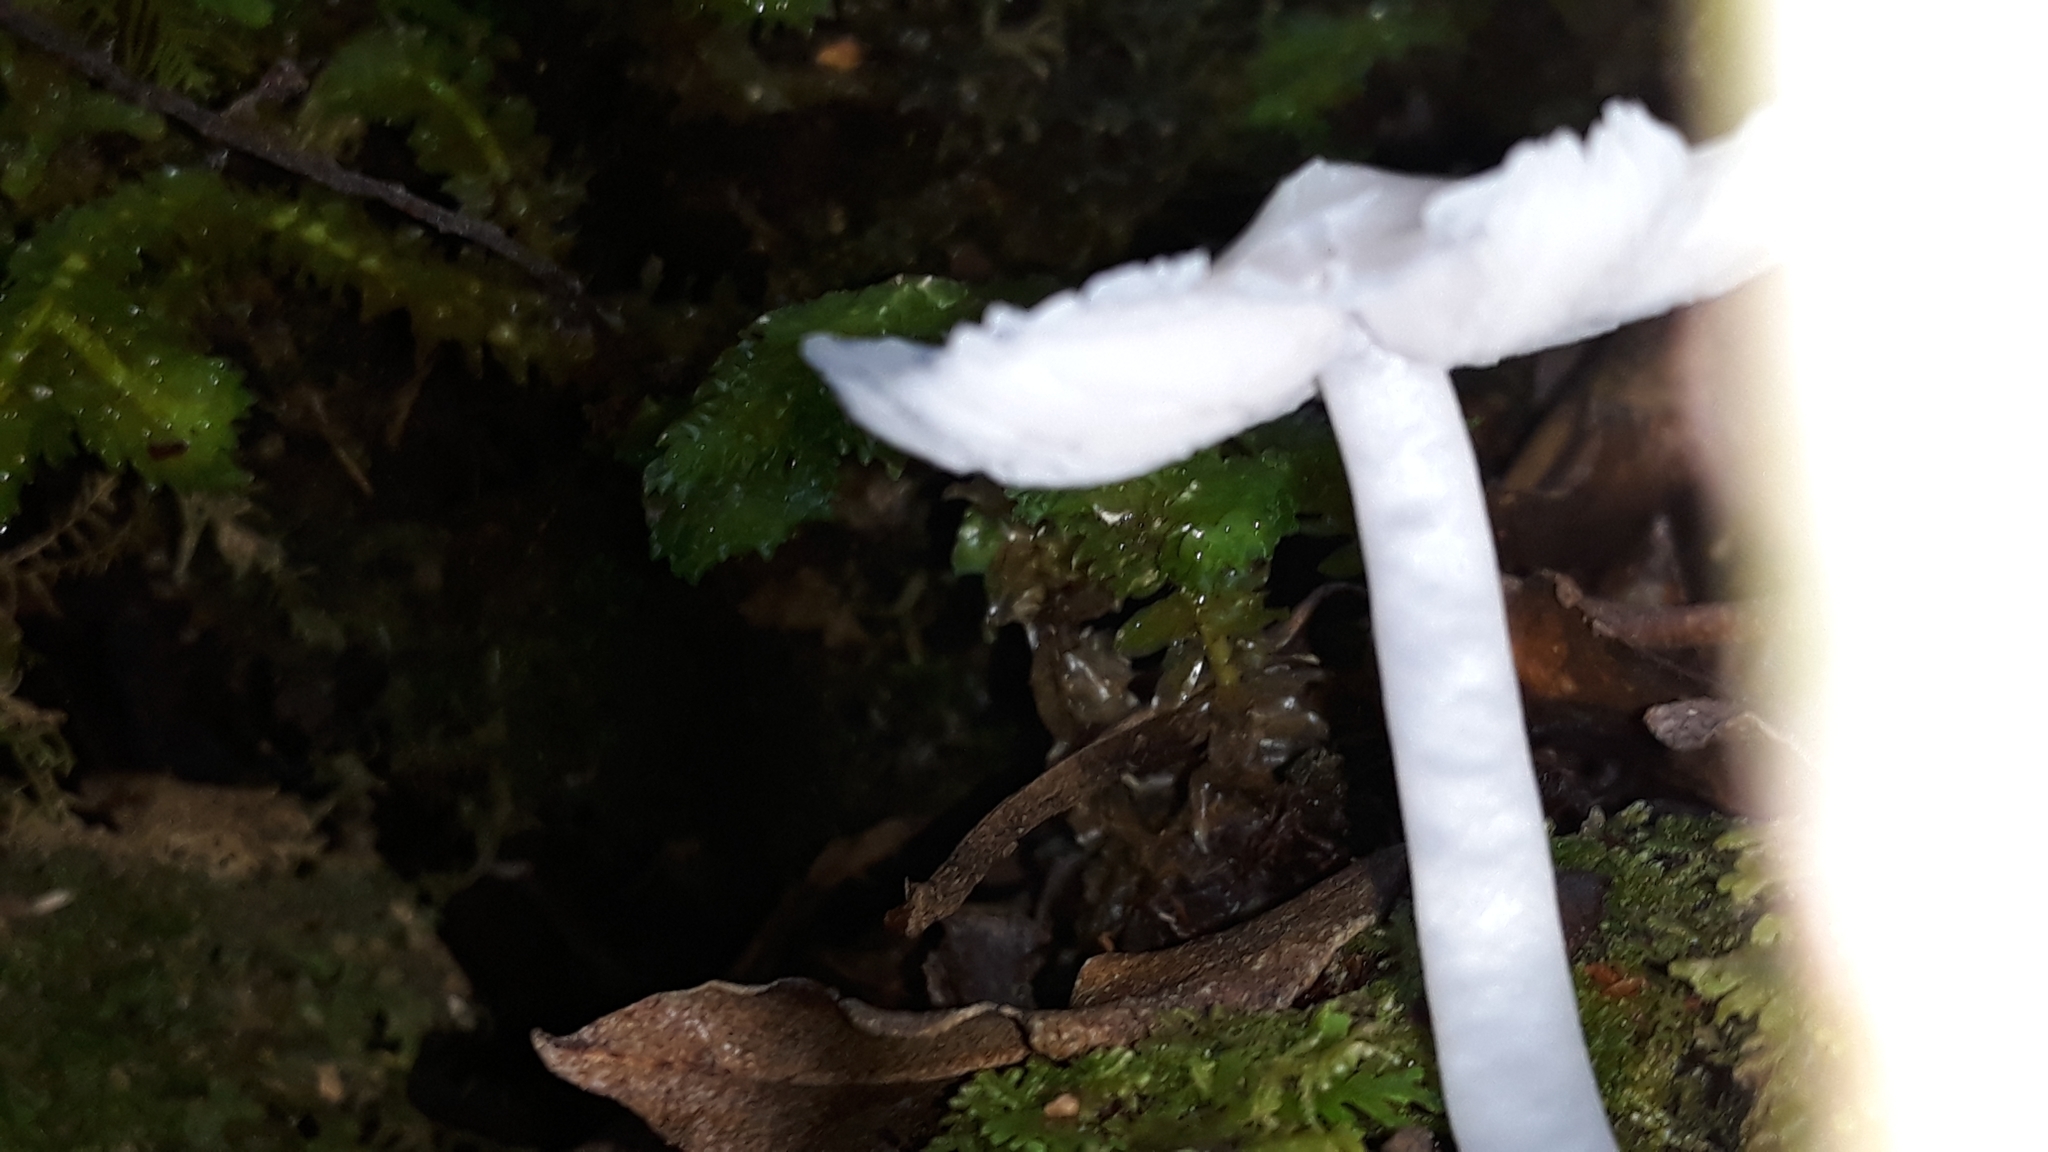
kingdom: Fungi
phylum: Basidiomycota
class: Agaricomycetes
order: Agaricales
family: Hygrophoraceae
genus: Humidicutis
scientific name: Humidicutis mavis
